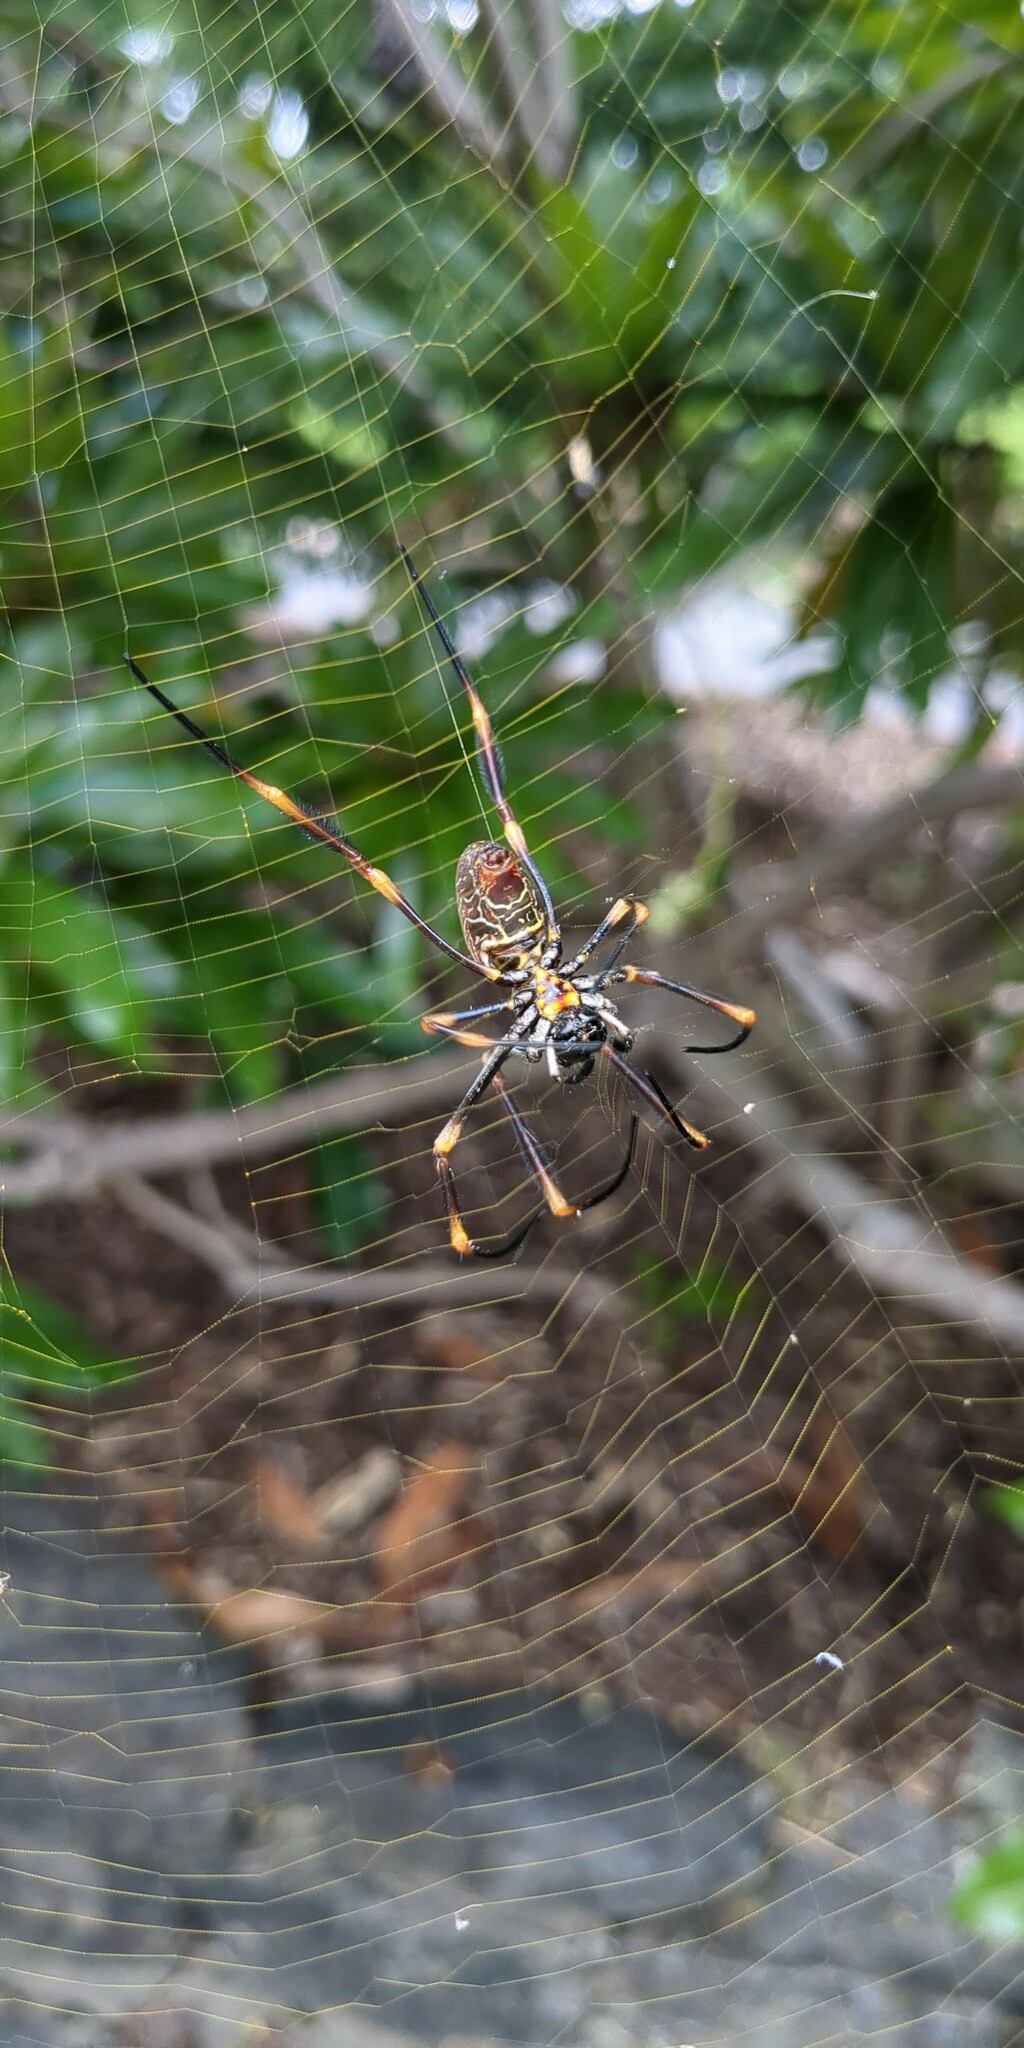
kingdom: Animalia
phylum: Arthropoda
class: Arachnida
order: Araneae
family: Araneidae
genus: Trichonephila
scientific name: Trichonephila plumipes
